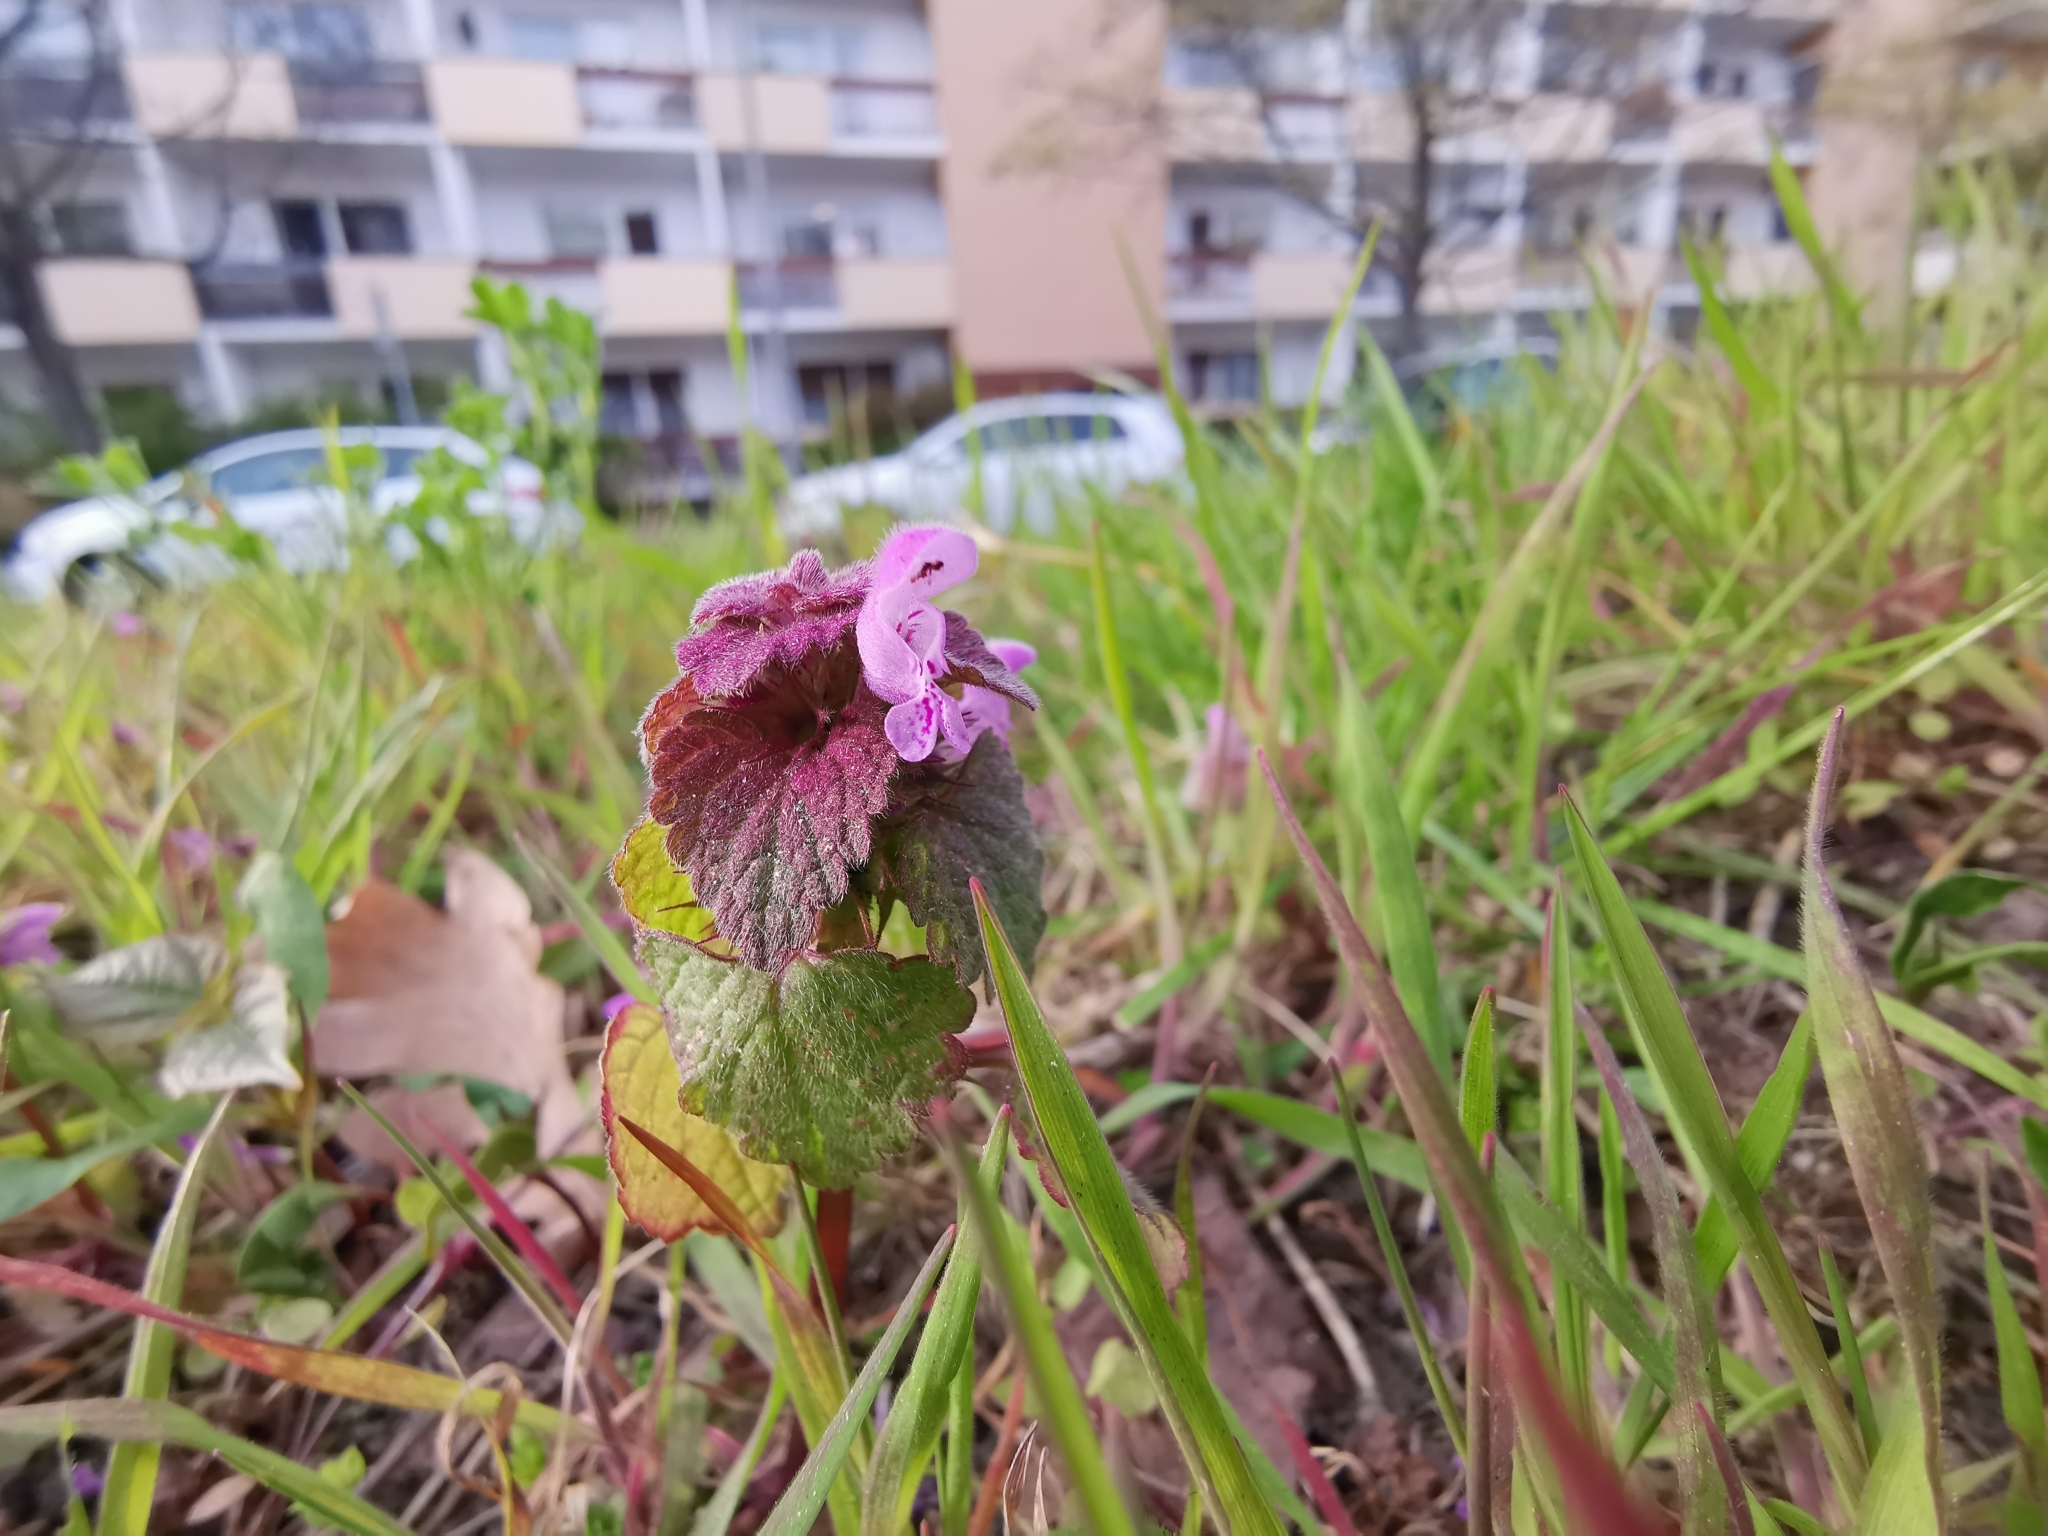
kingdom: Plantae
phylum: Tracheophyta
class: Magnoliopsida
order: Lamiales
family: Lamiaceae
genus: Lamium
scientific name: Lamium purpureum
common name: Red dead-nettle
